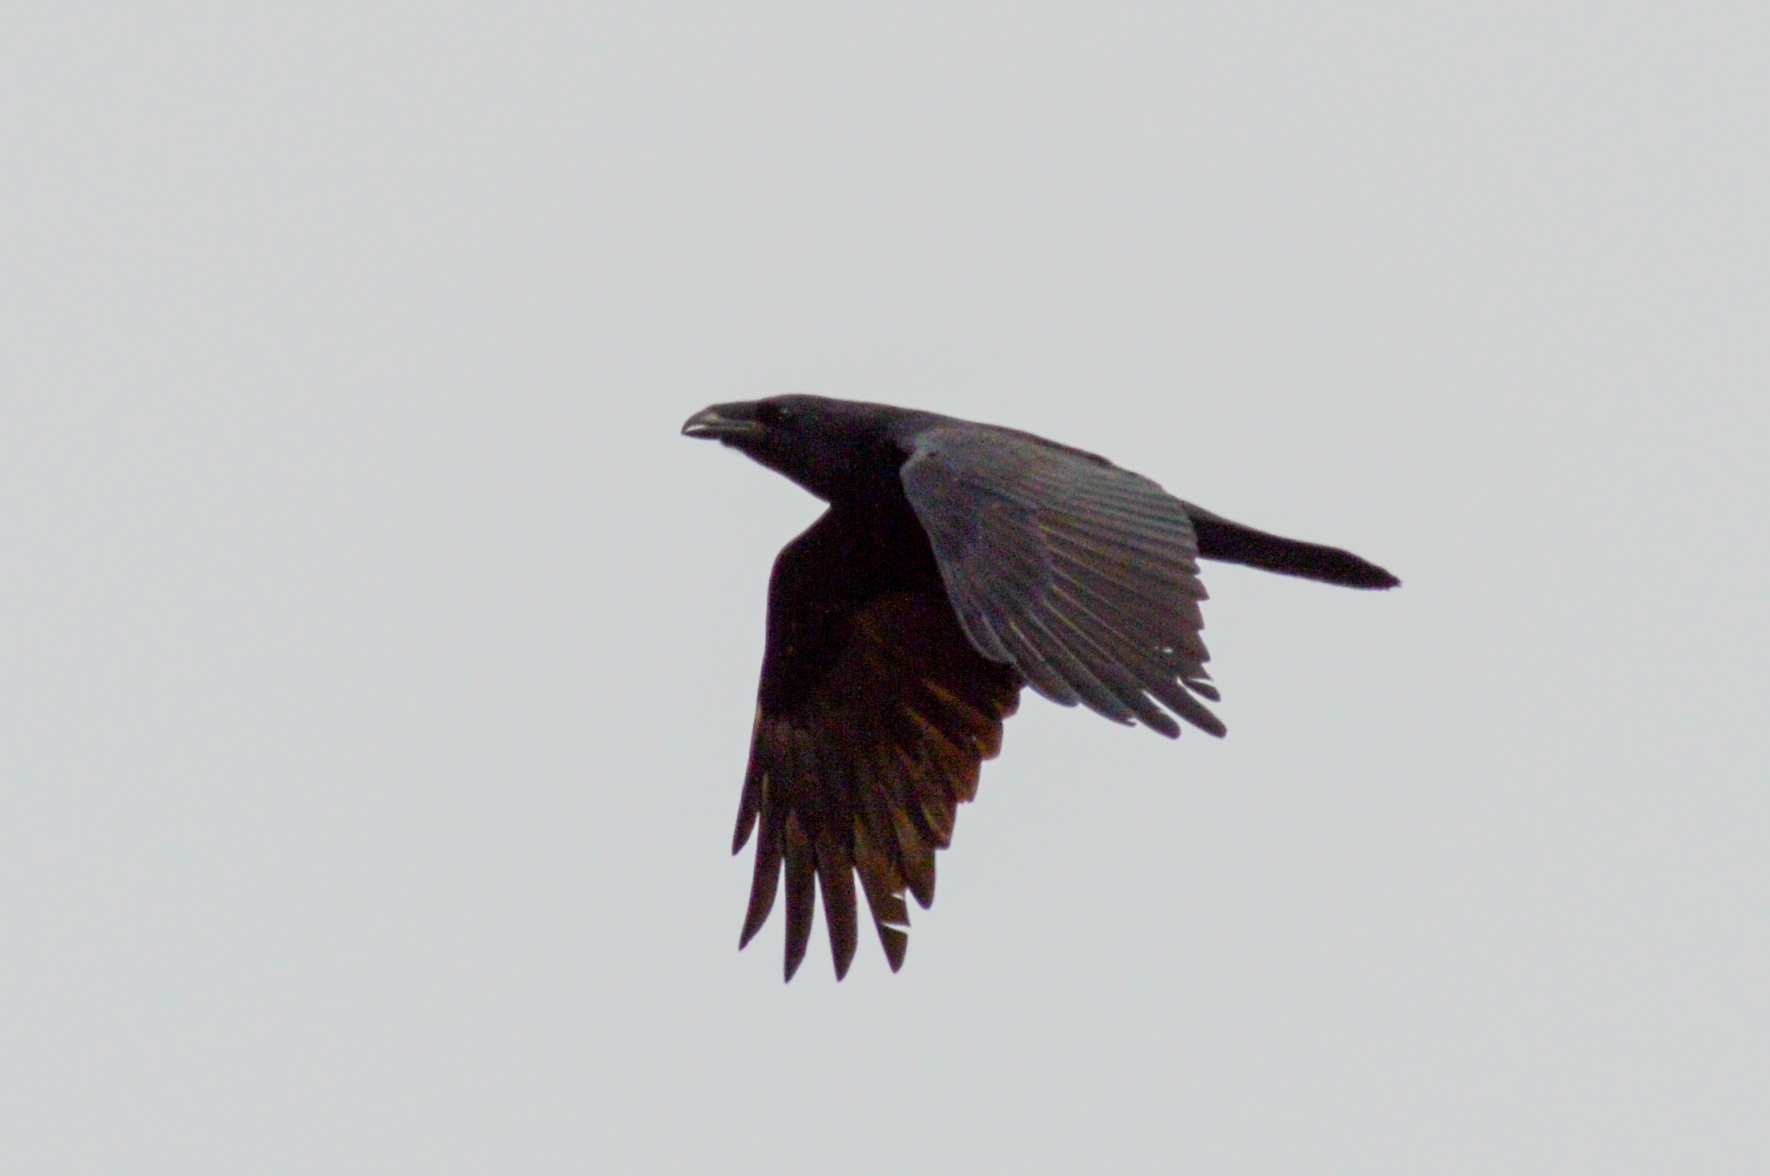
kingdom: Animalia
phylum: Chordata
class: Aves
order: Passeriformes
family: Corvidae
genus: Corvus
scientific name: Corvus corax
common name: Common raven
